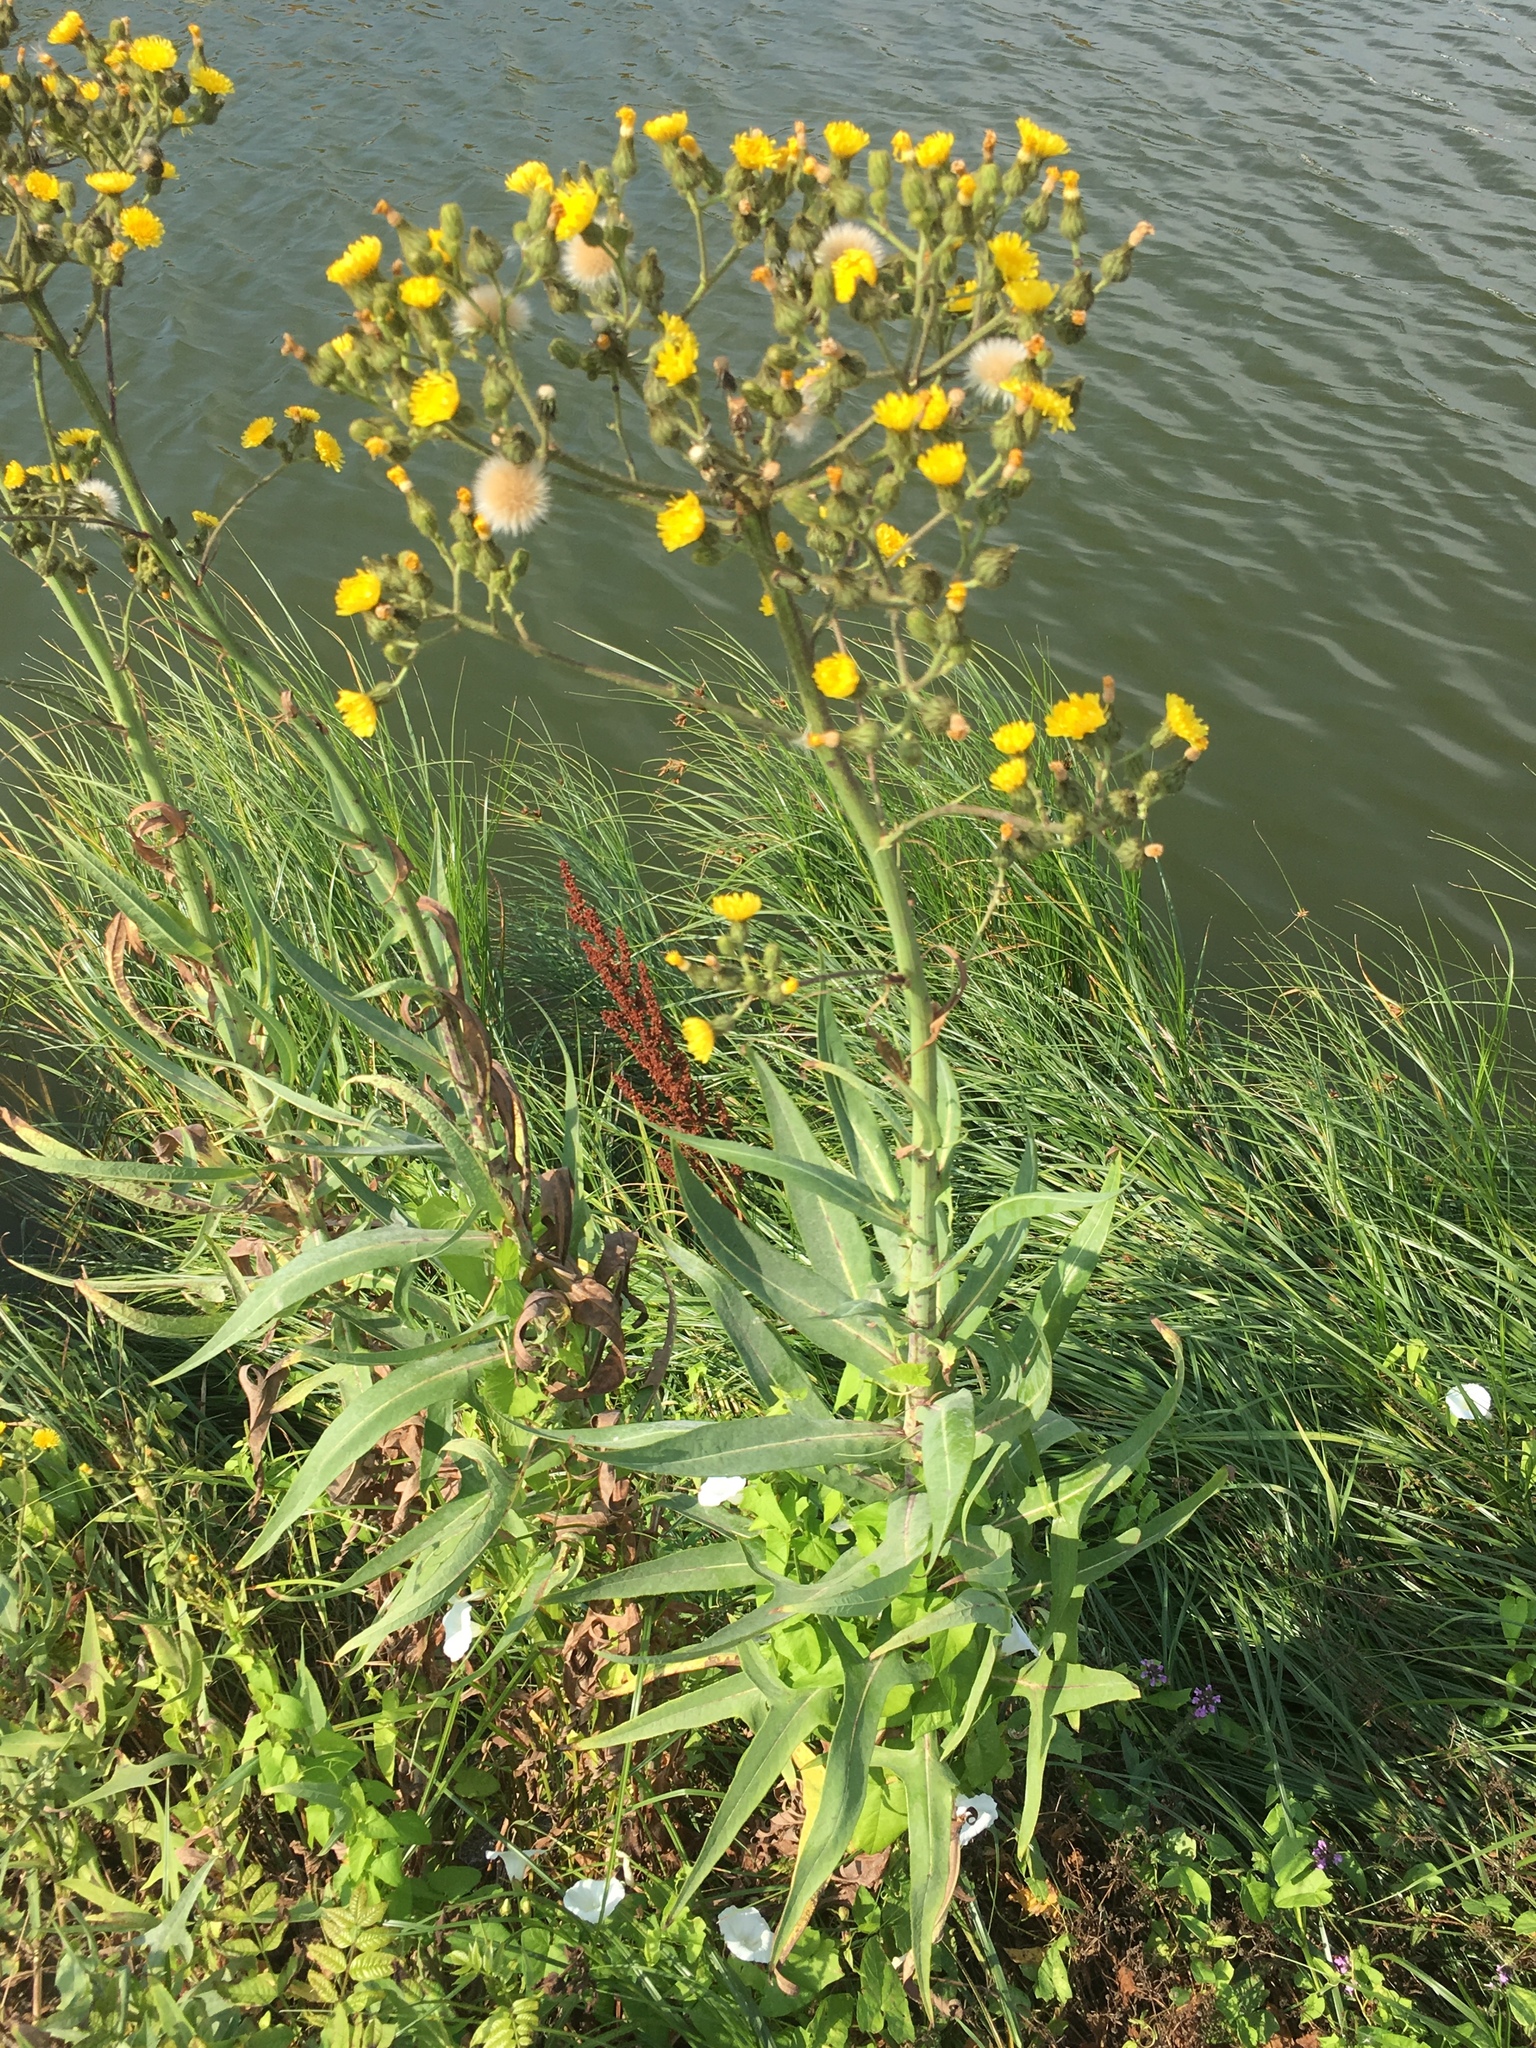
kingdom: Plantae
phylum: Tracheophyta
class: Magnoliopsida
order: Asterales
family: Asteraceae
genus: Sonchus
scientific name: Sonchus palustris
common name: Marsh sow-thistle
